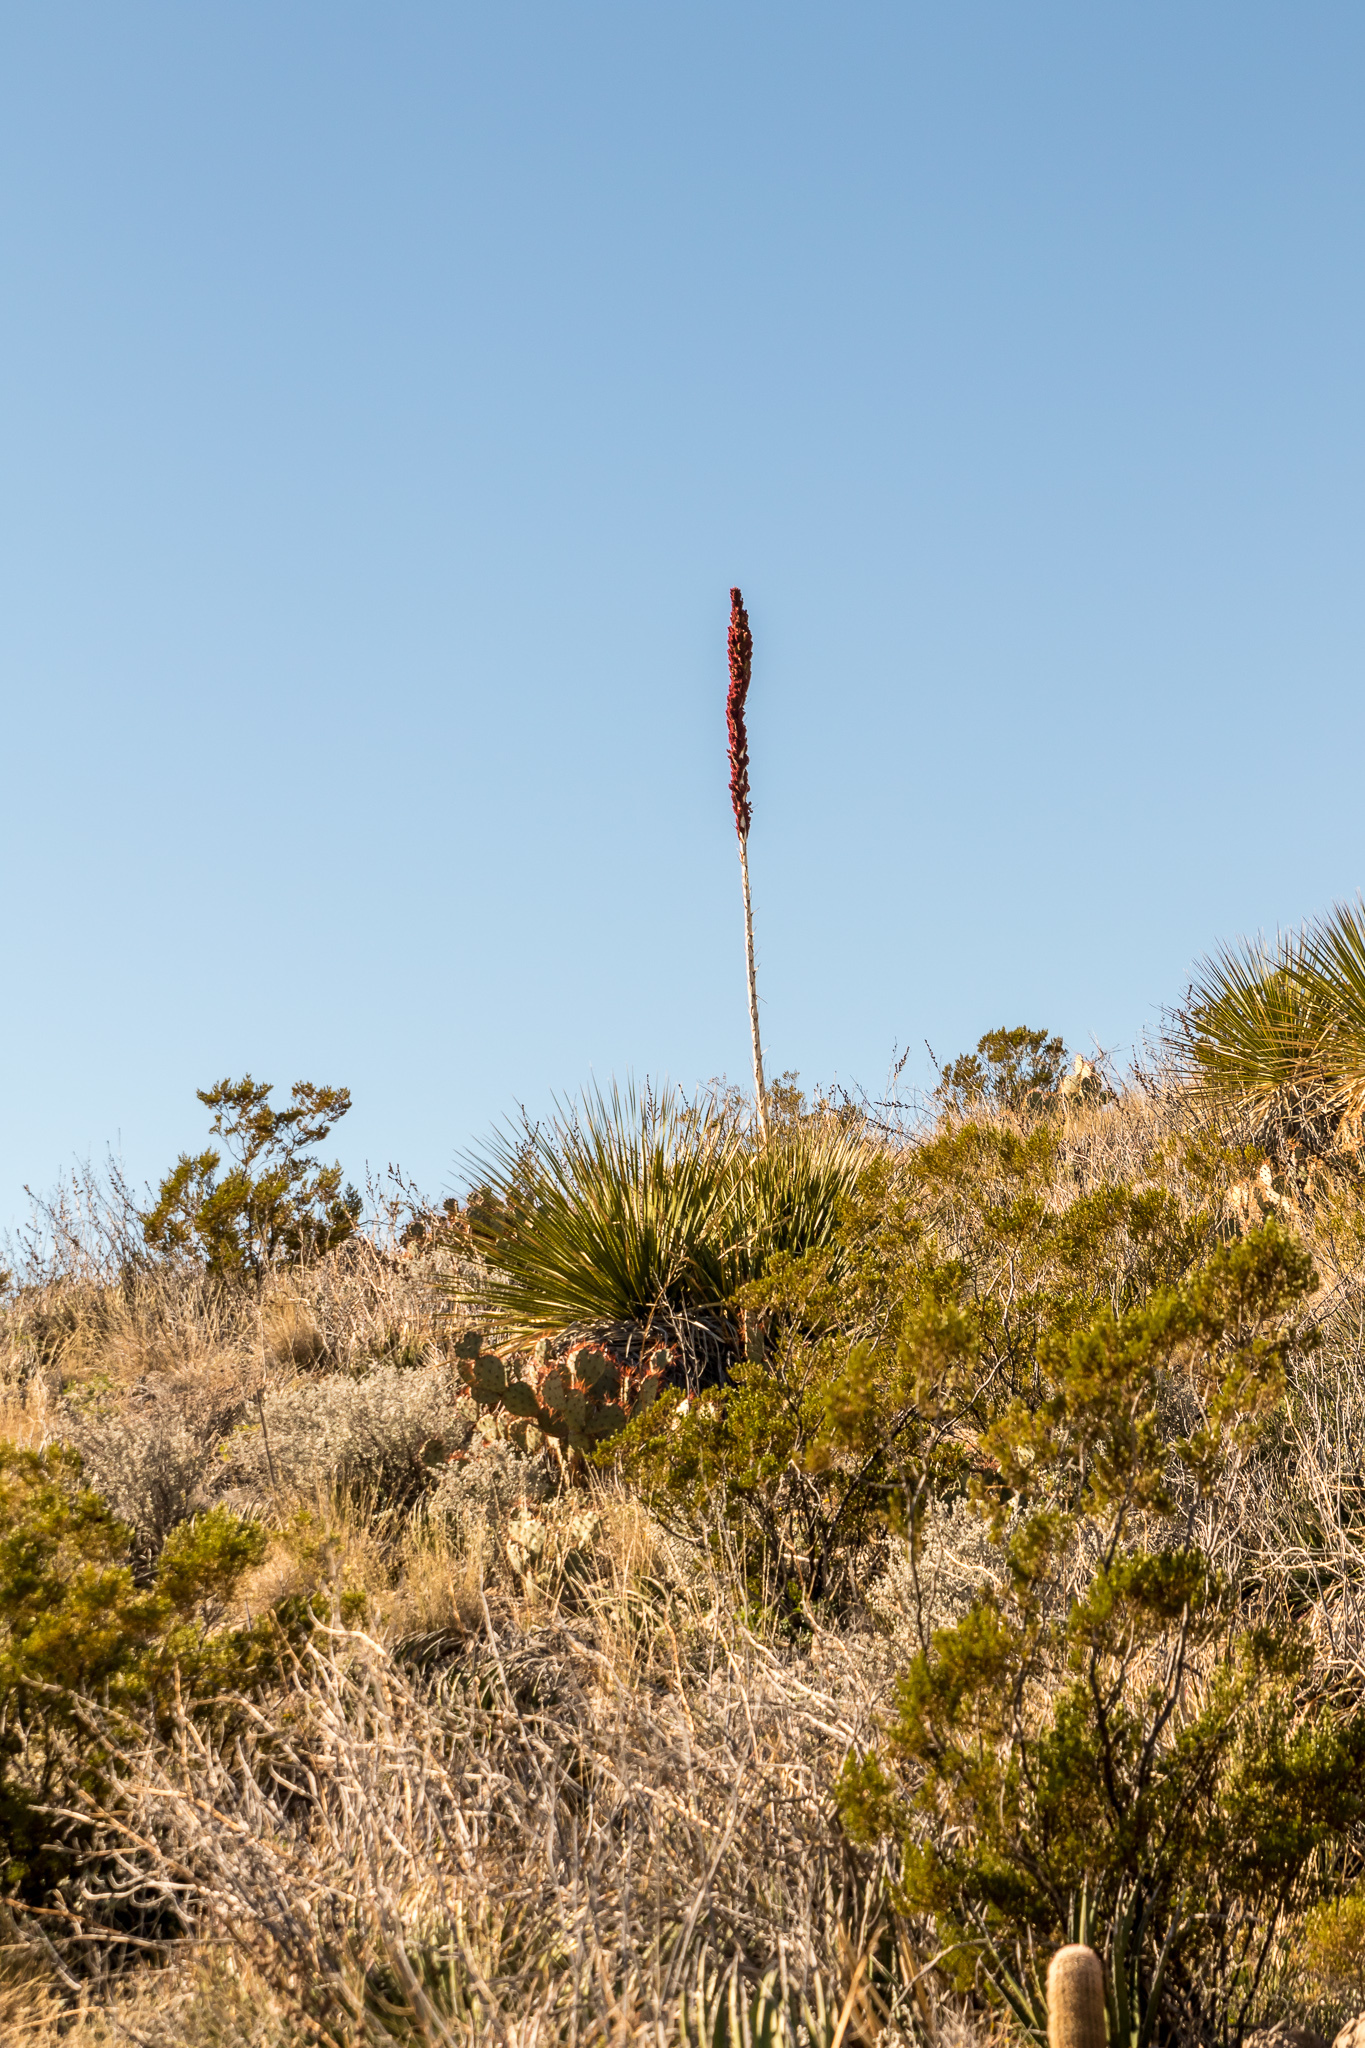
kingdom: Plantae
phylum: Tracheophyta
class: Liliopsida
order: Asparagales
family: Asparagaceae
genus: Dasylirion
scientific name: Dasylirion leiophyllum
